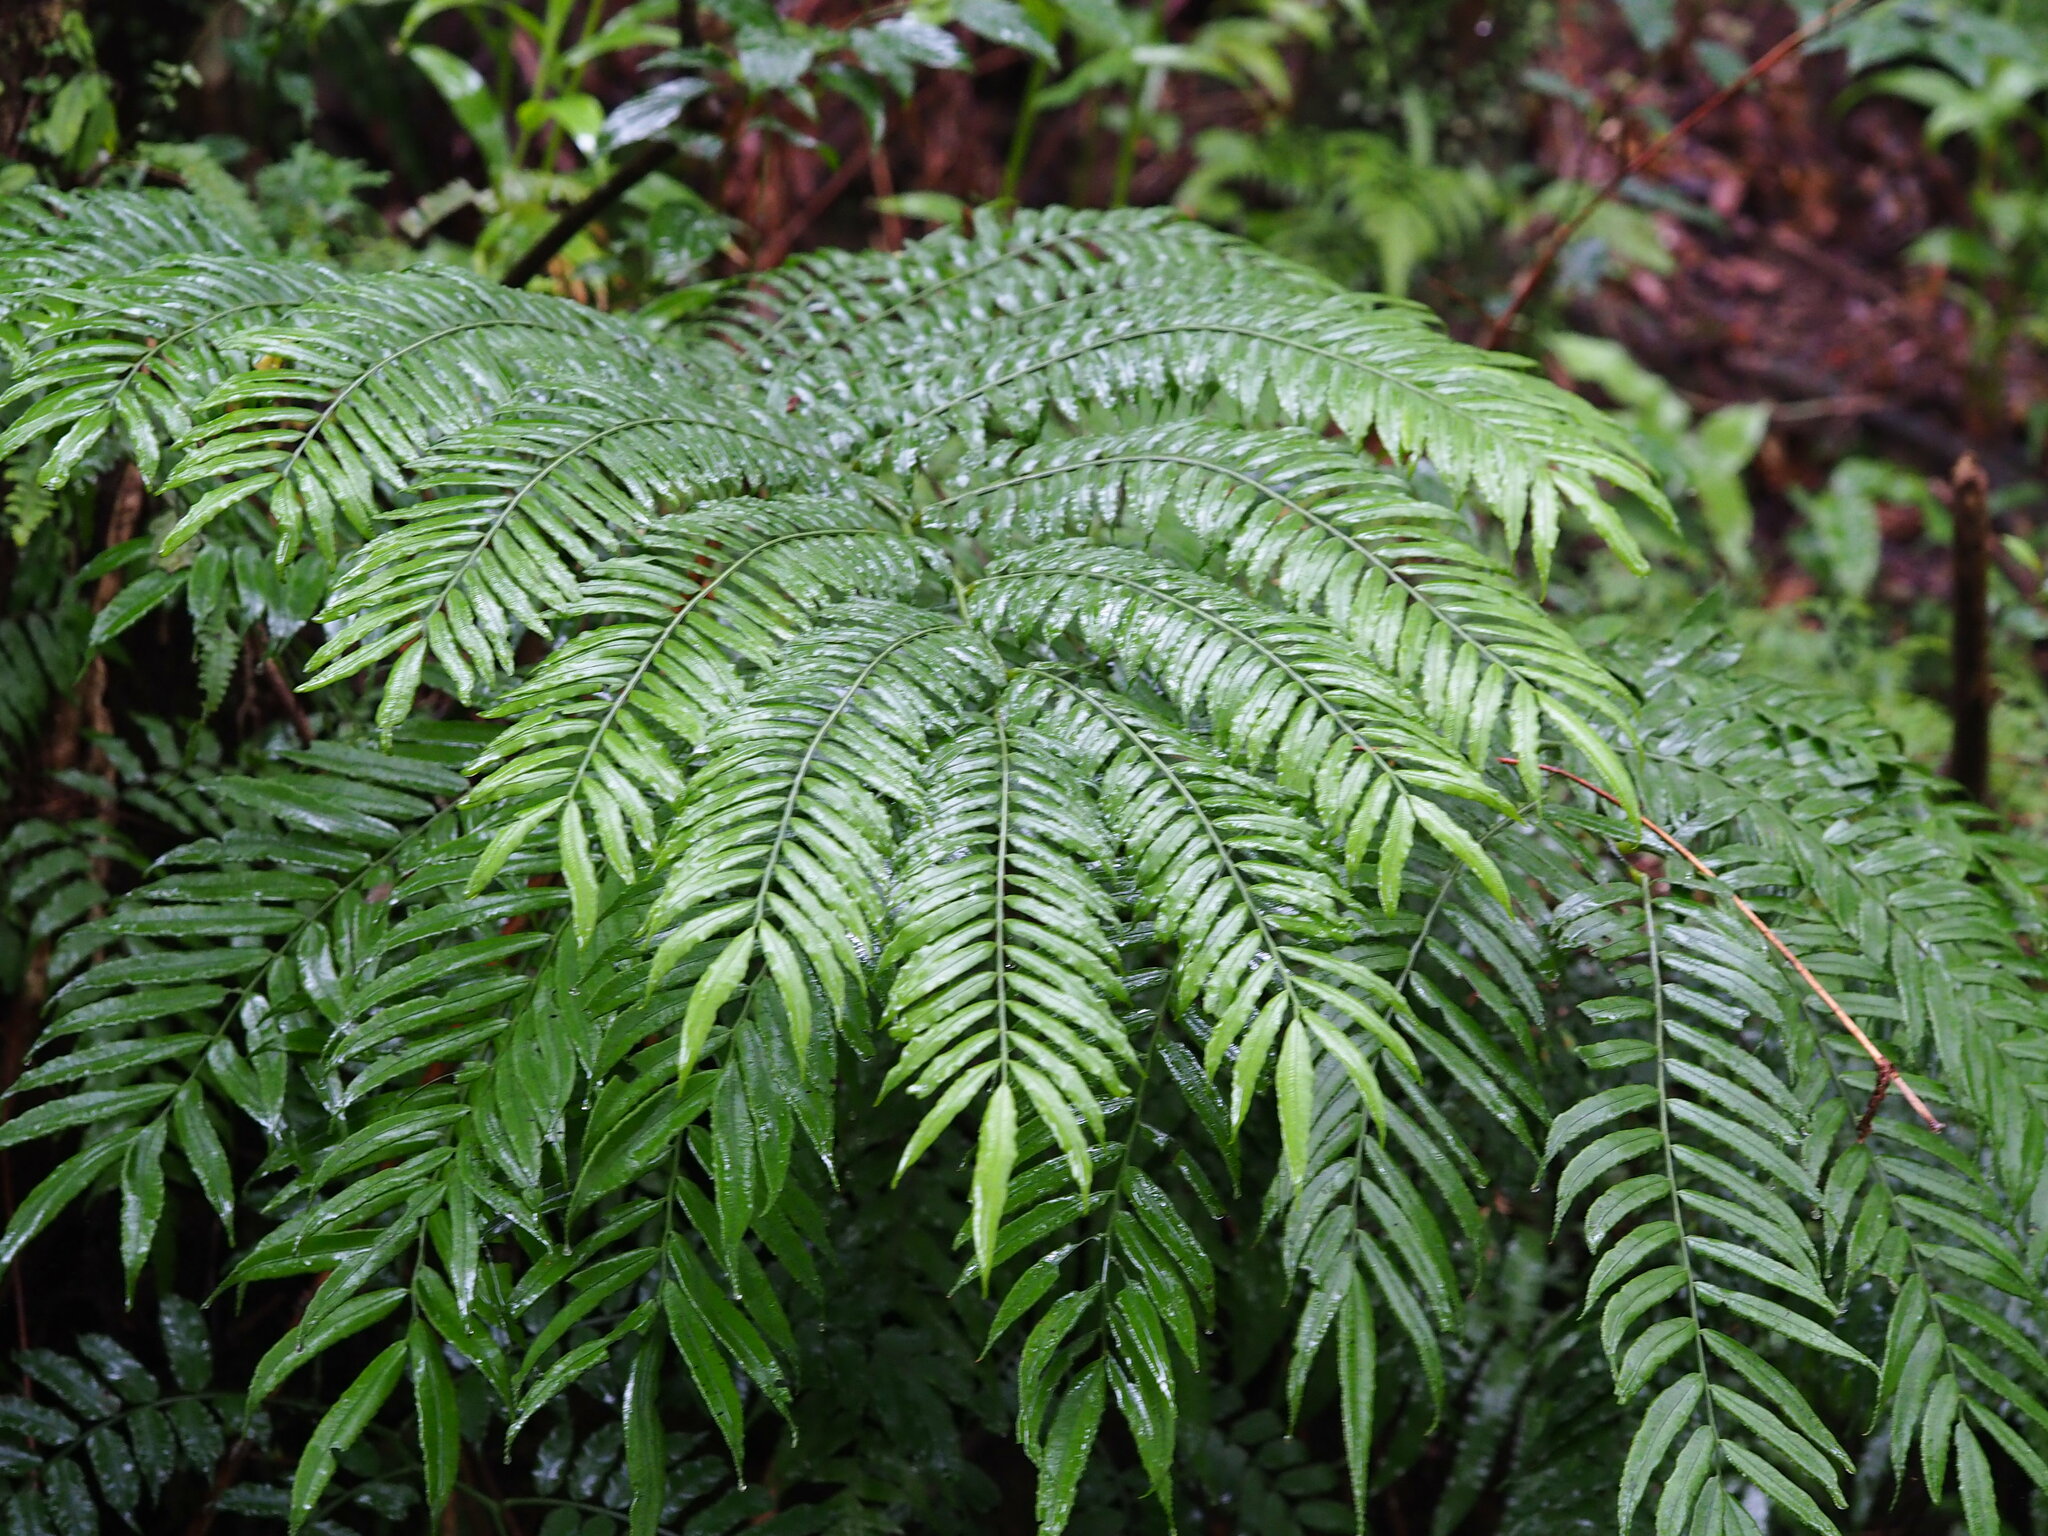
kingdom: Plantae
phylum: Tracheophyta
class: Polypodiopsida
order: Marattiales
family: Marattiaceae
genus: Angiopteris
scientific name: Angiopteris lygodiifolia
